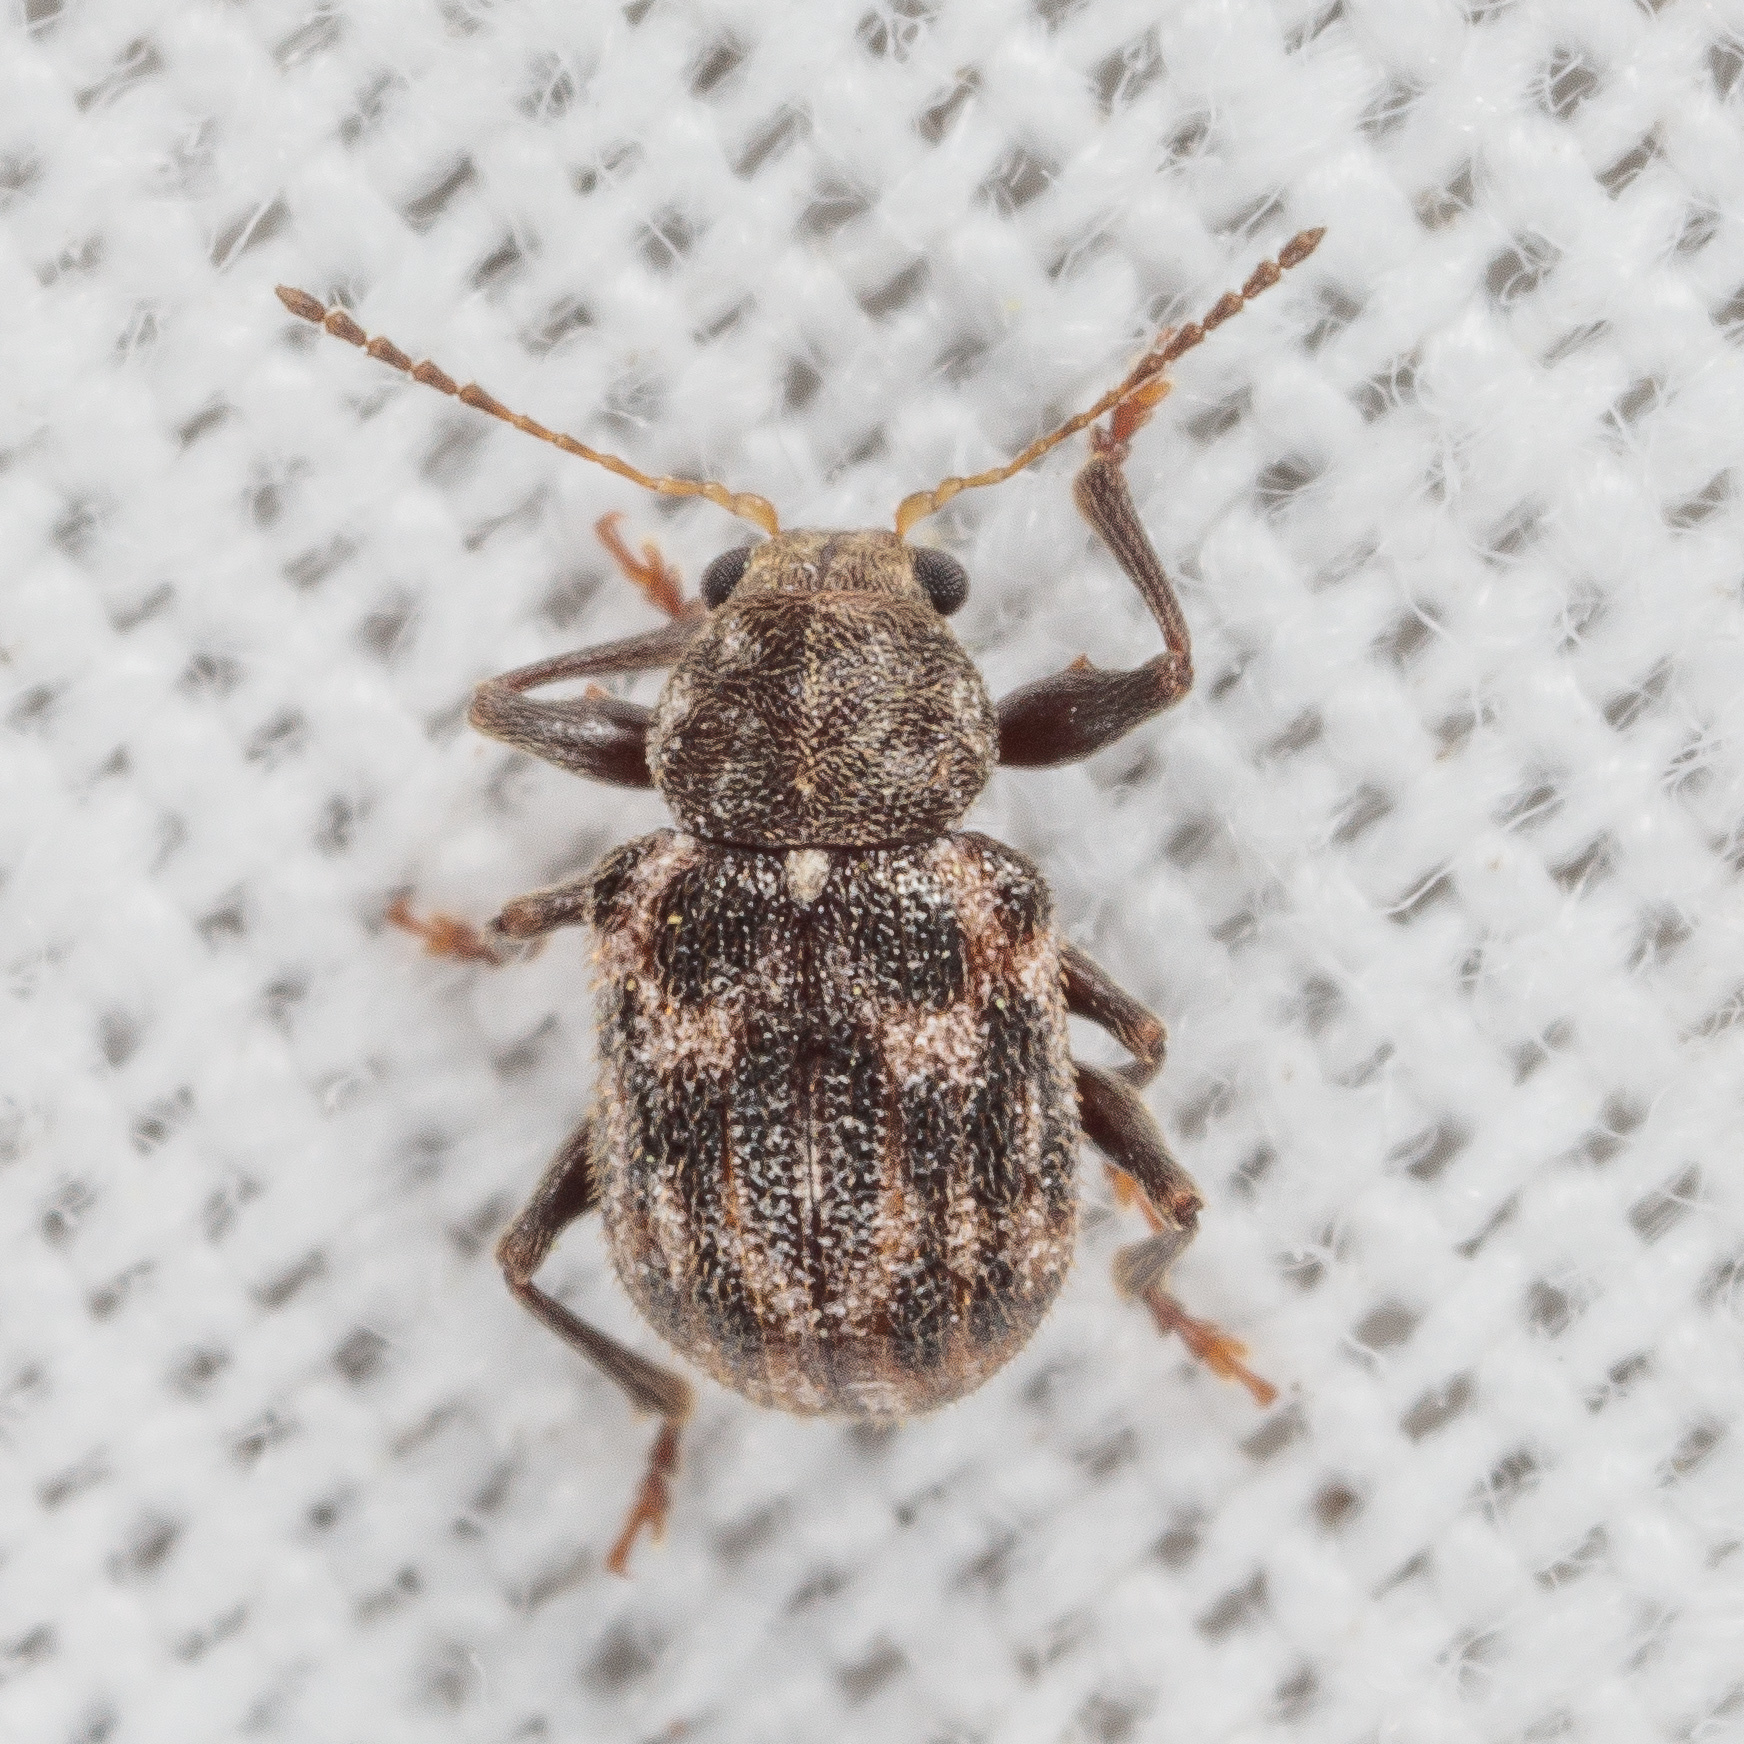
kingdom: Animalia
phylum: Arthropoda
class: Insecta
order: Coleoptera
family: Chrysomelidae
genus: Xanthonia
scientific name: Xanthonia picturata
